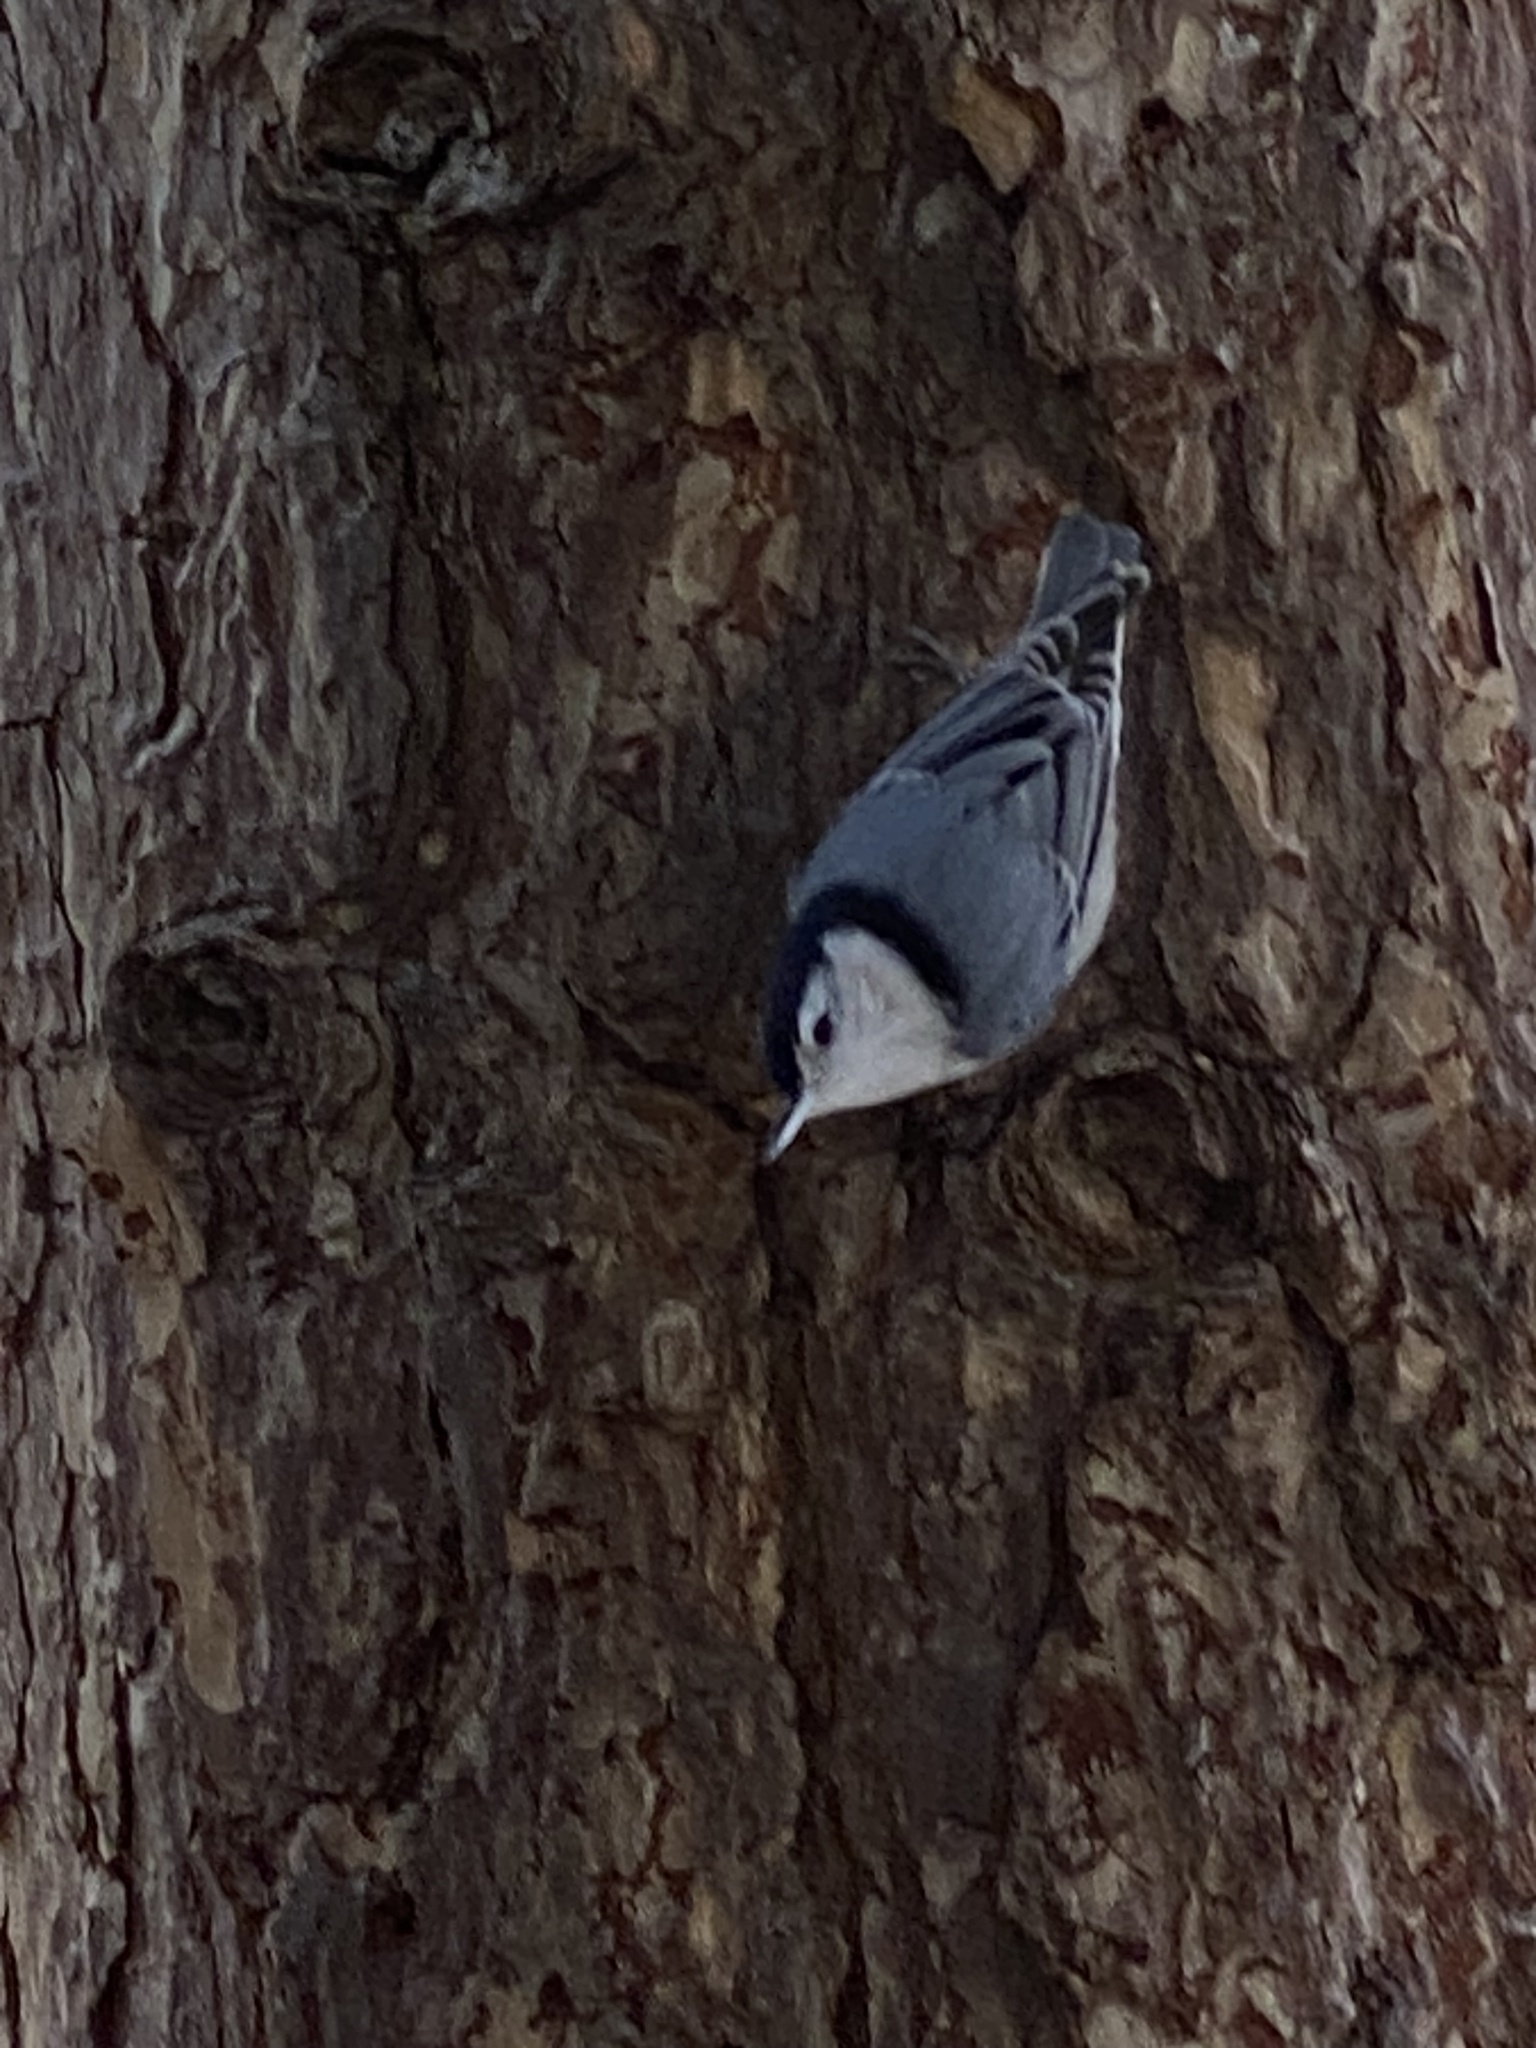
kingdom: Animalia
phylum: Chordata
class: Aves
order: Passeriformes
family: Sittidae
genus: Sitta
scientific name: Sitta carolinensis
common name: White-breasted nuthatch
